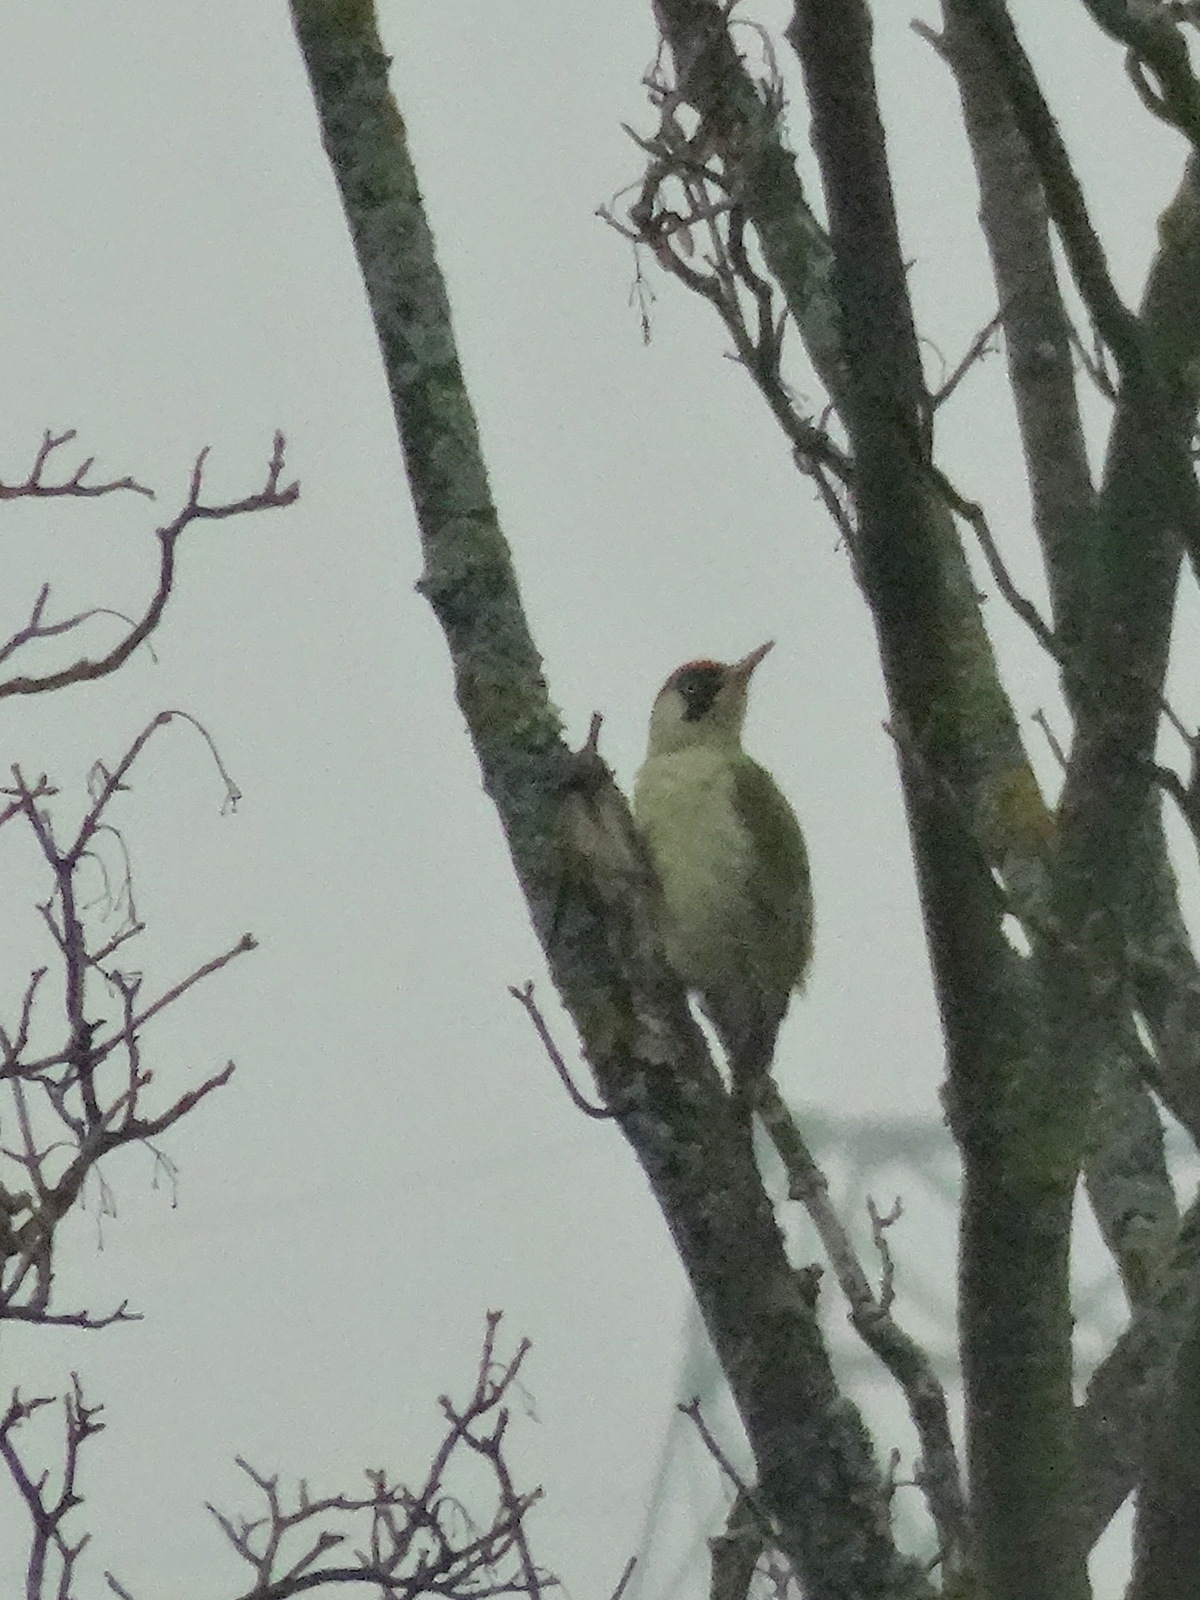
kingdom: Animalia
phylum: Chordata
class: Aves
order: Piciformes
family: Picidae
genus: Picus
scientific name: Picus viridis
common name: European green woodpecker
